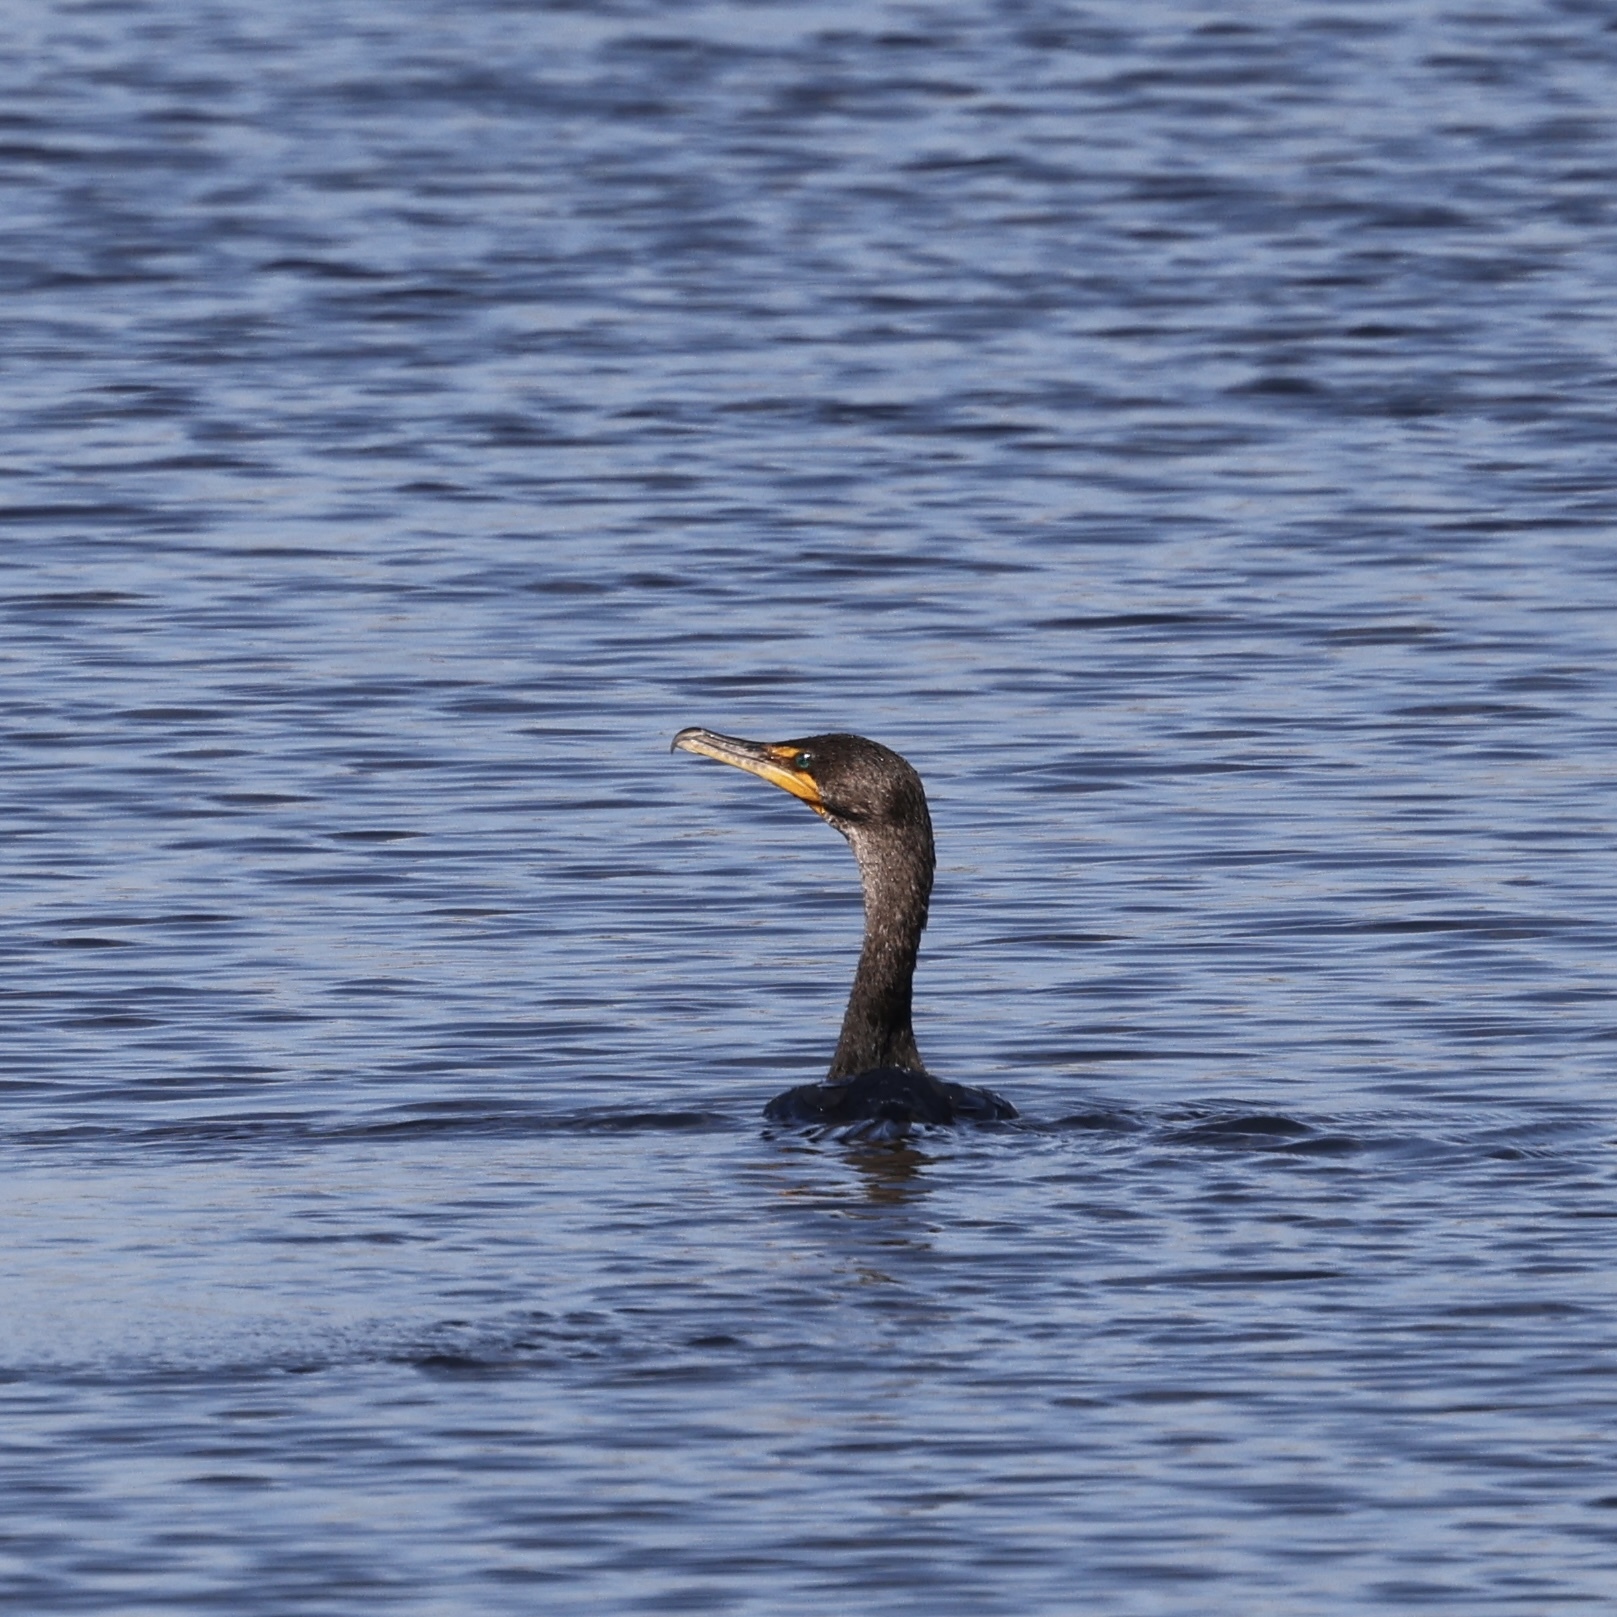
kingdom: Animalia
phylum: Chordata
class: Aves
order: Suliformes
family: Phalacrocoracidae
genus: Phalacrocorax
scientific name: Phalacrocorax auritus
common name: Double-crested cormorant
